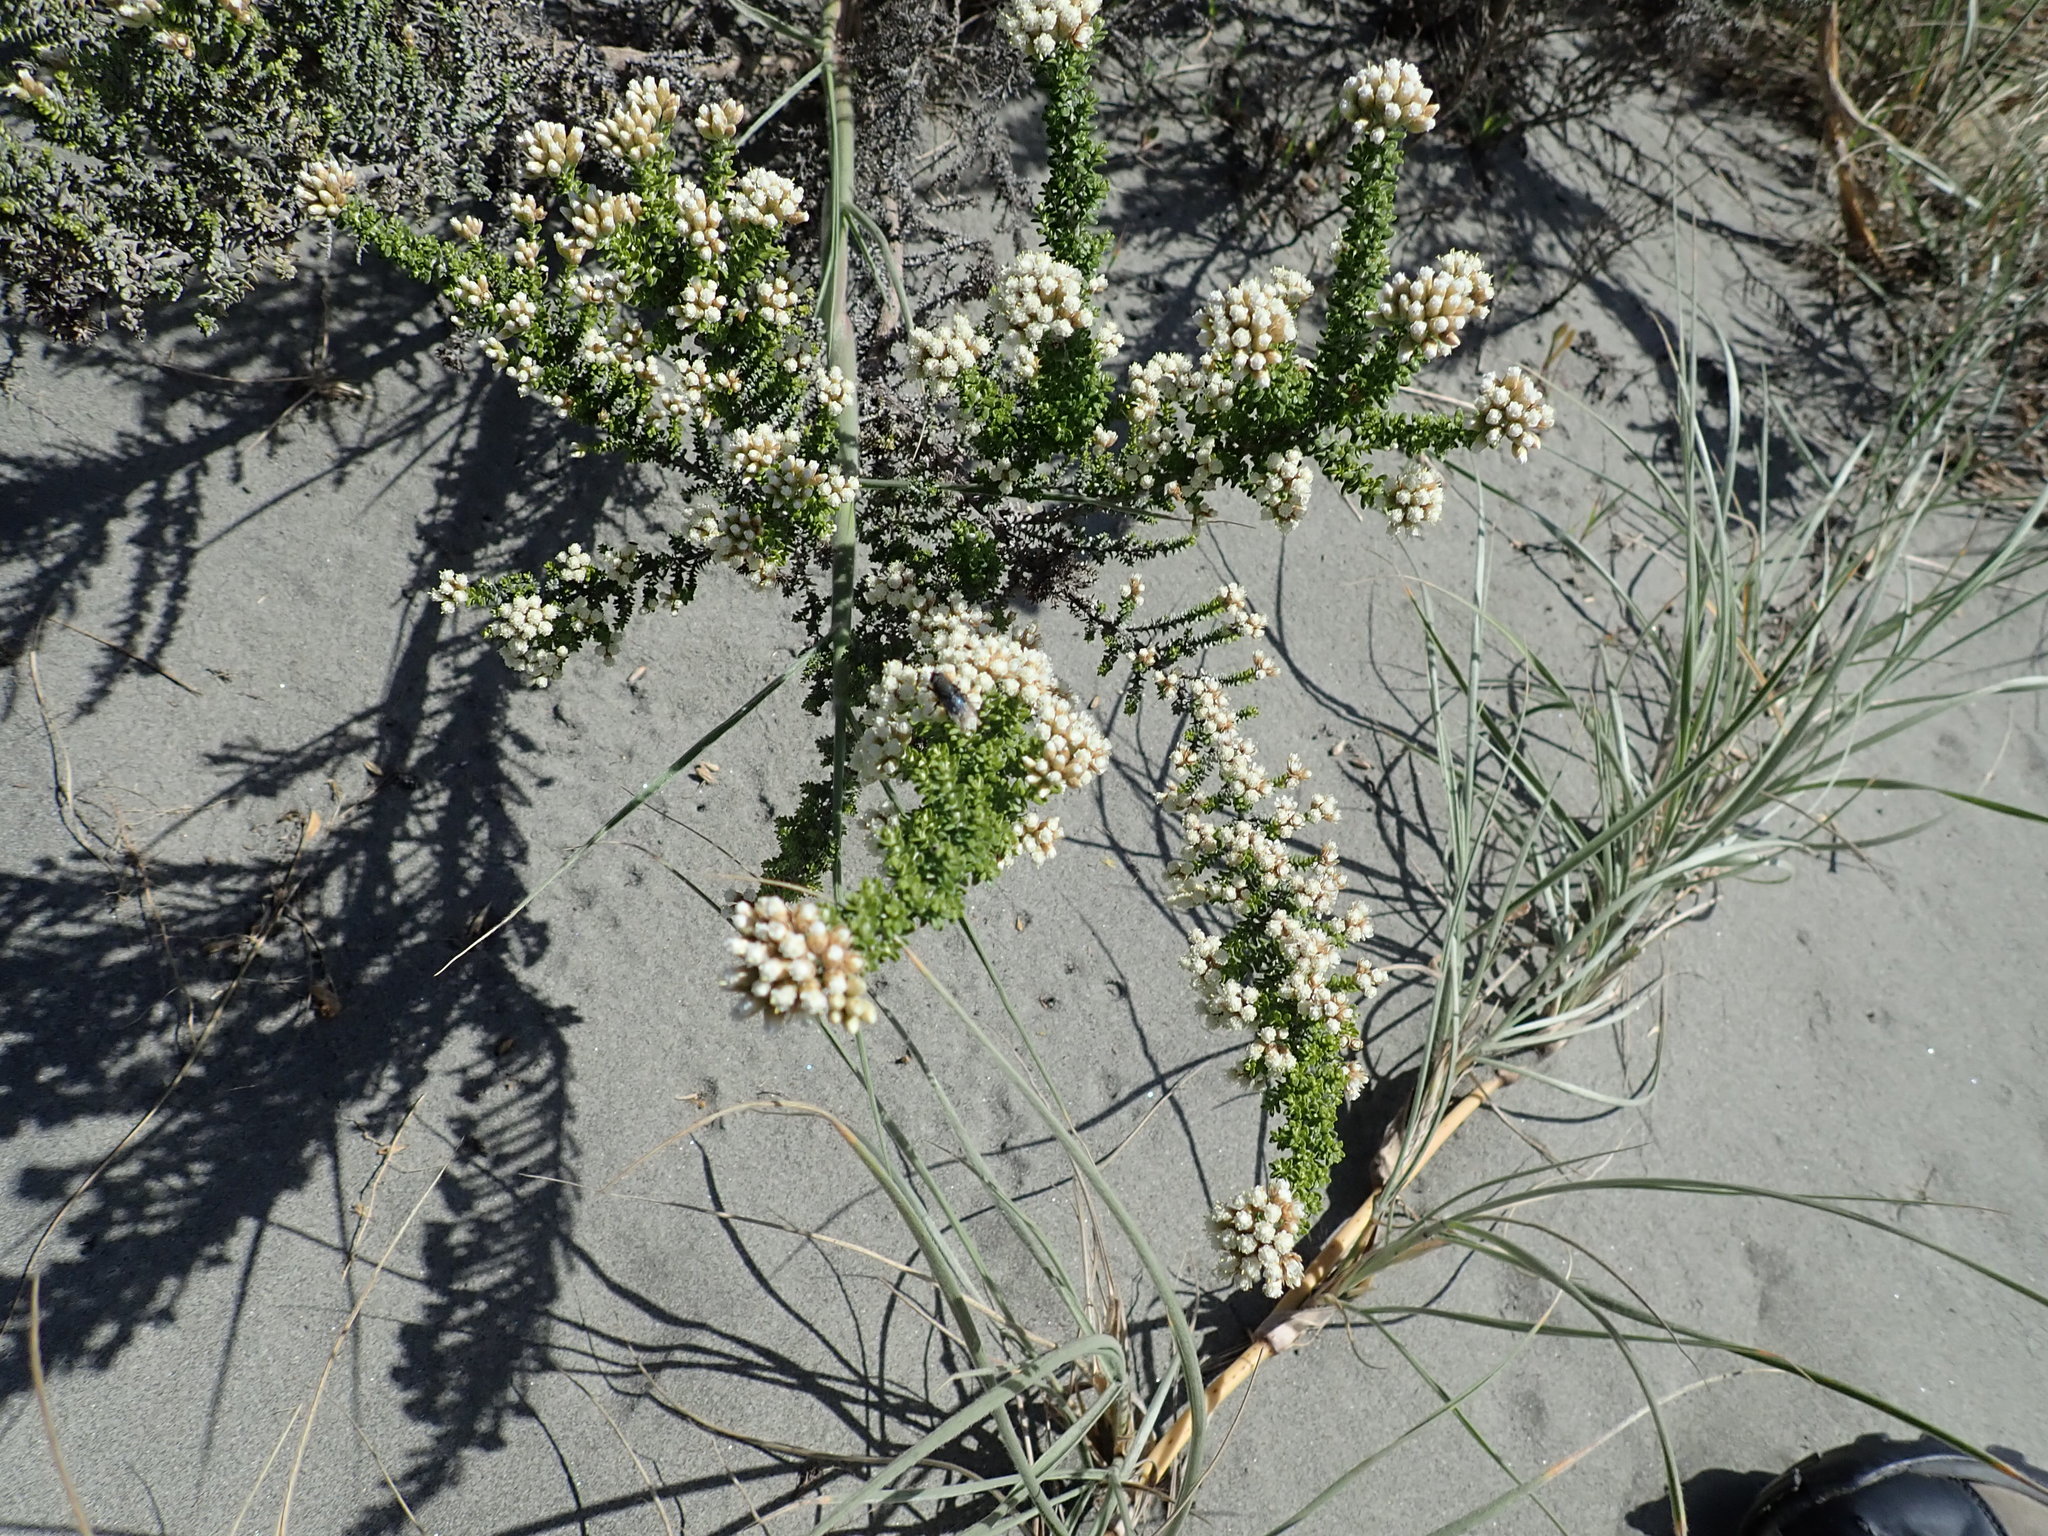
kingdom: Plantae
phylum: Tracheophyta
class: Magnoliopsida
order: Asterales
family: Asteraceae
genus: Ozothamnus
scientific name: Ozothamnus leptophyllus
